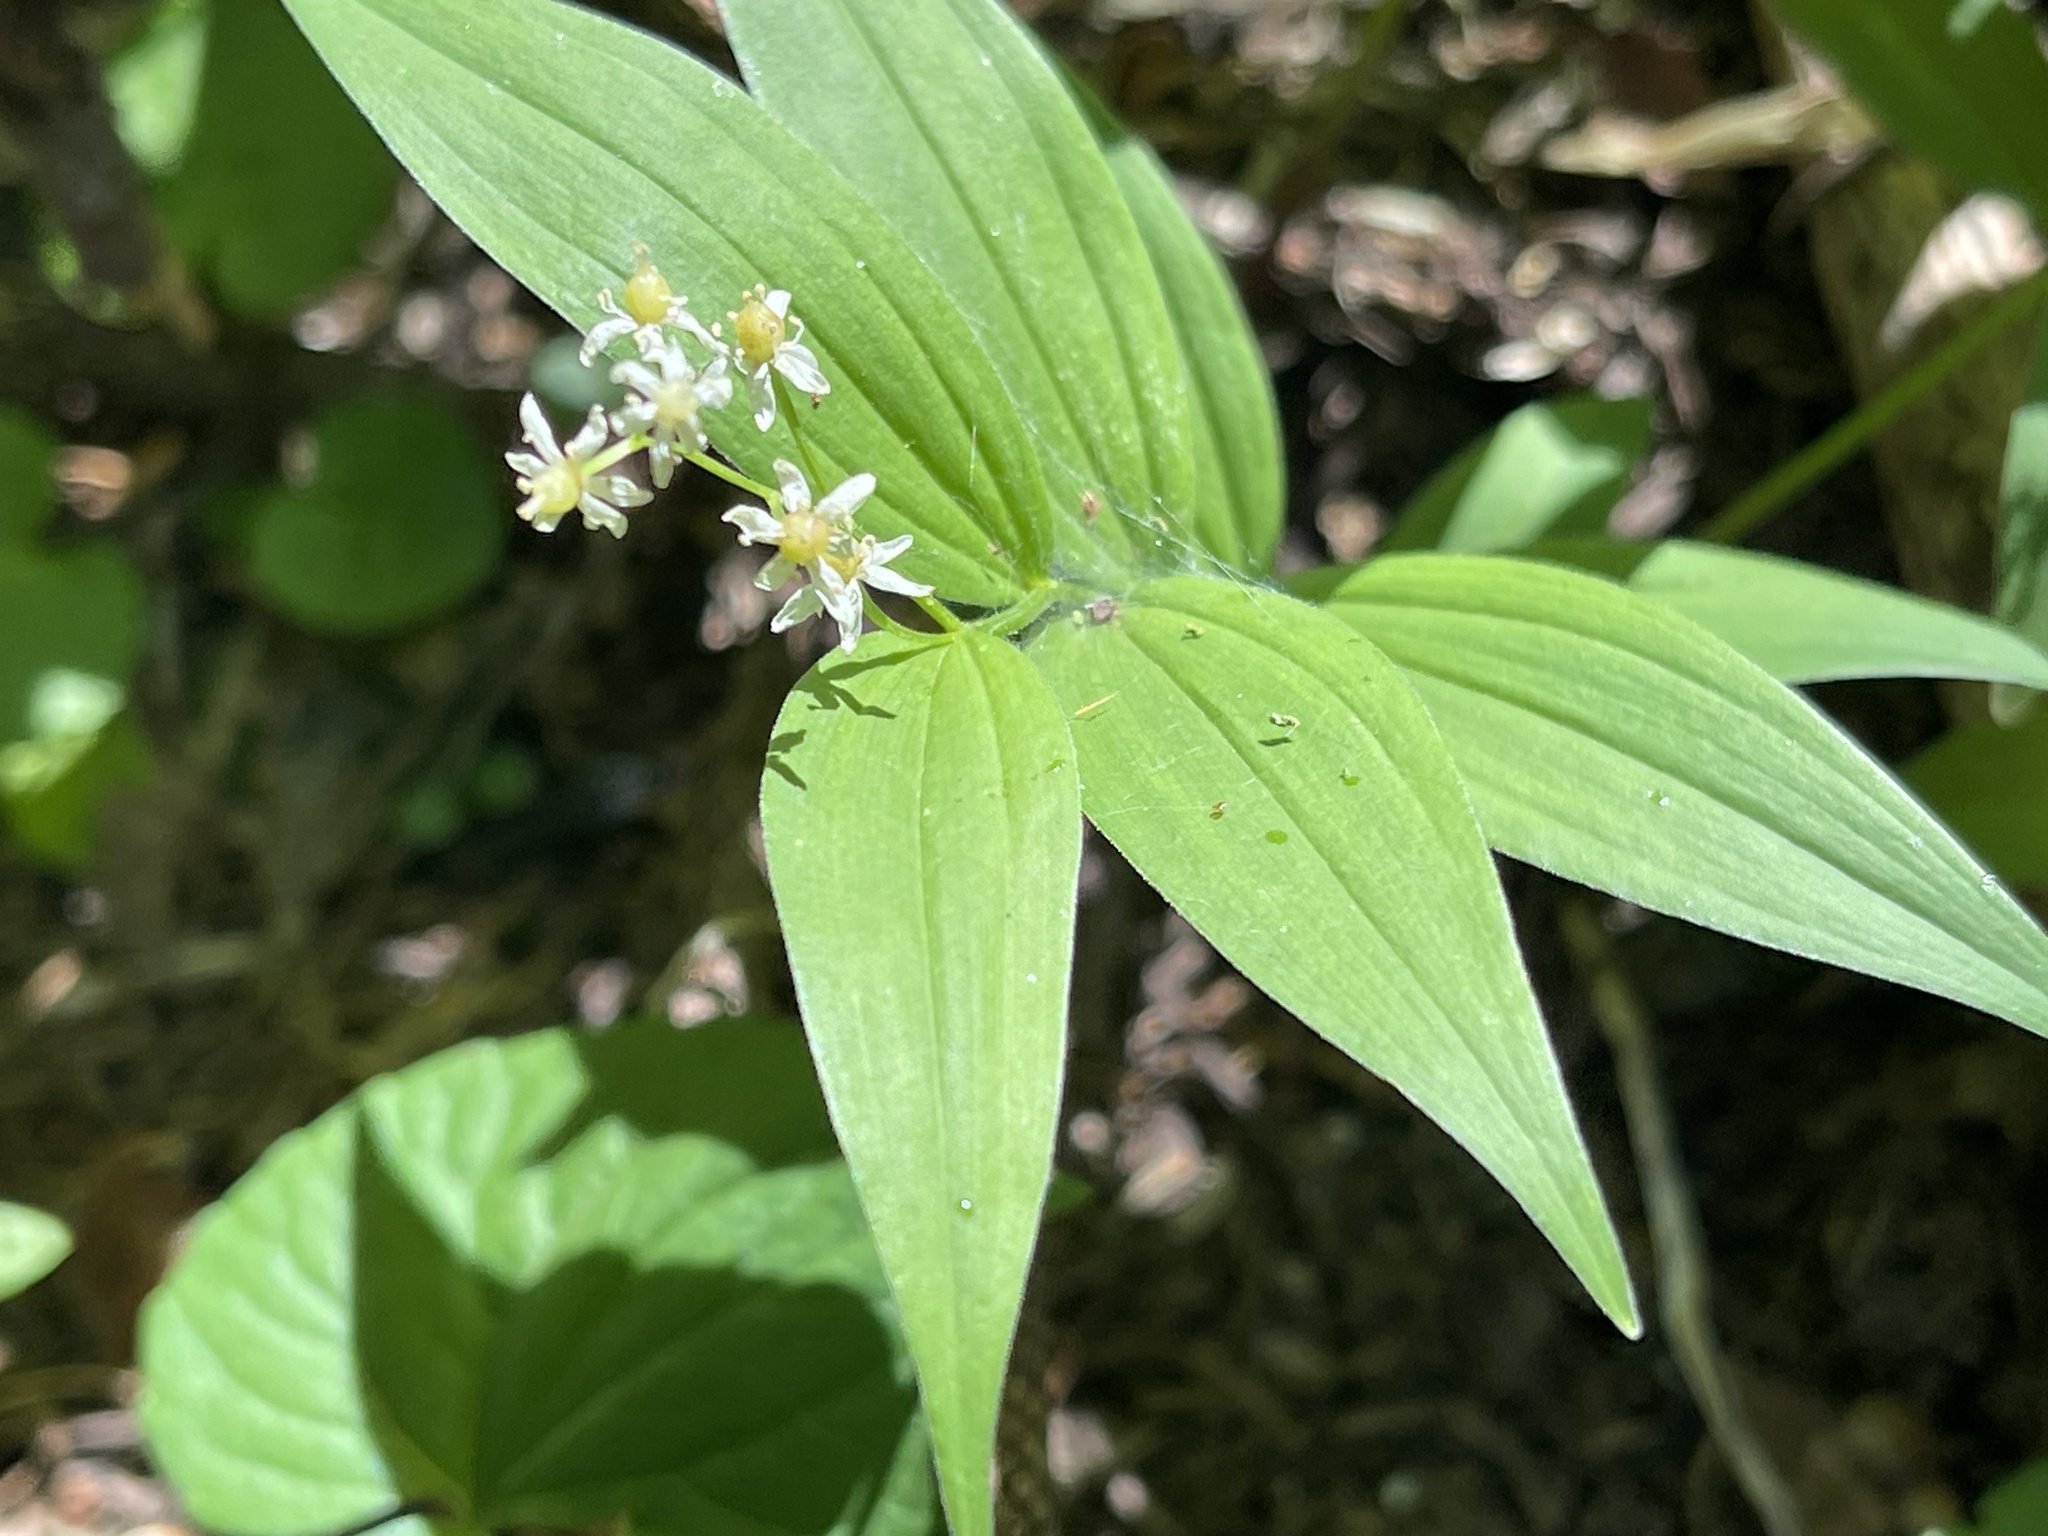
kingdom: Plantae
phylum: Tracheophyta
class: Liliopsida
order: Asparagales
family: Asparagaceae
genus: Maianthemum
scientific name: Maianthemum stellatum
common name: Little false solomon's seal
